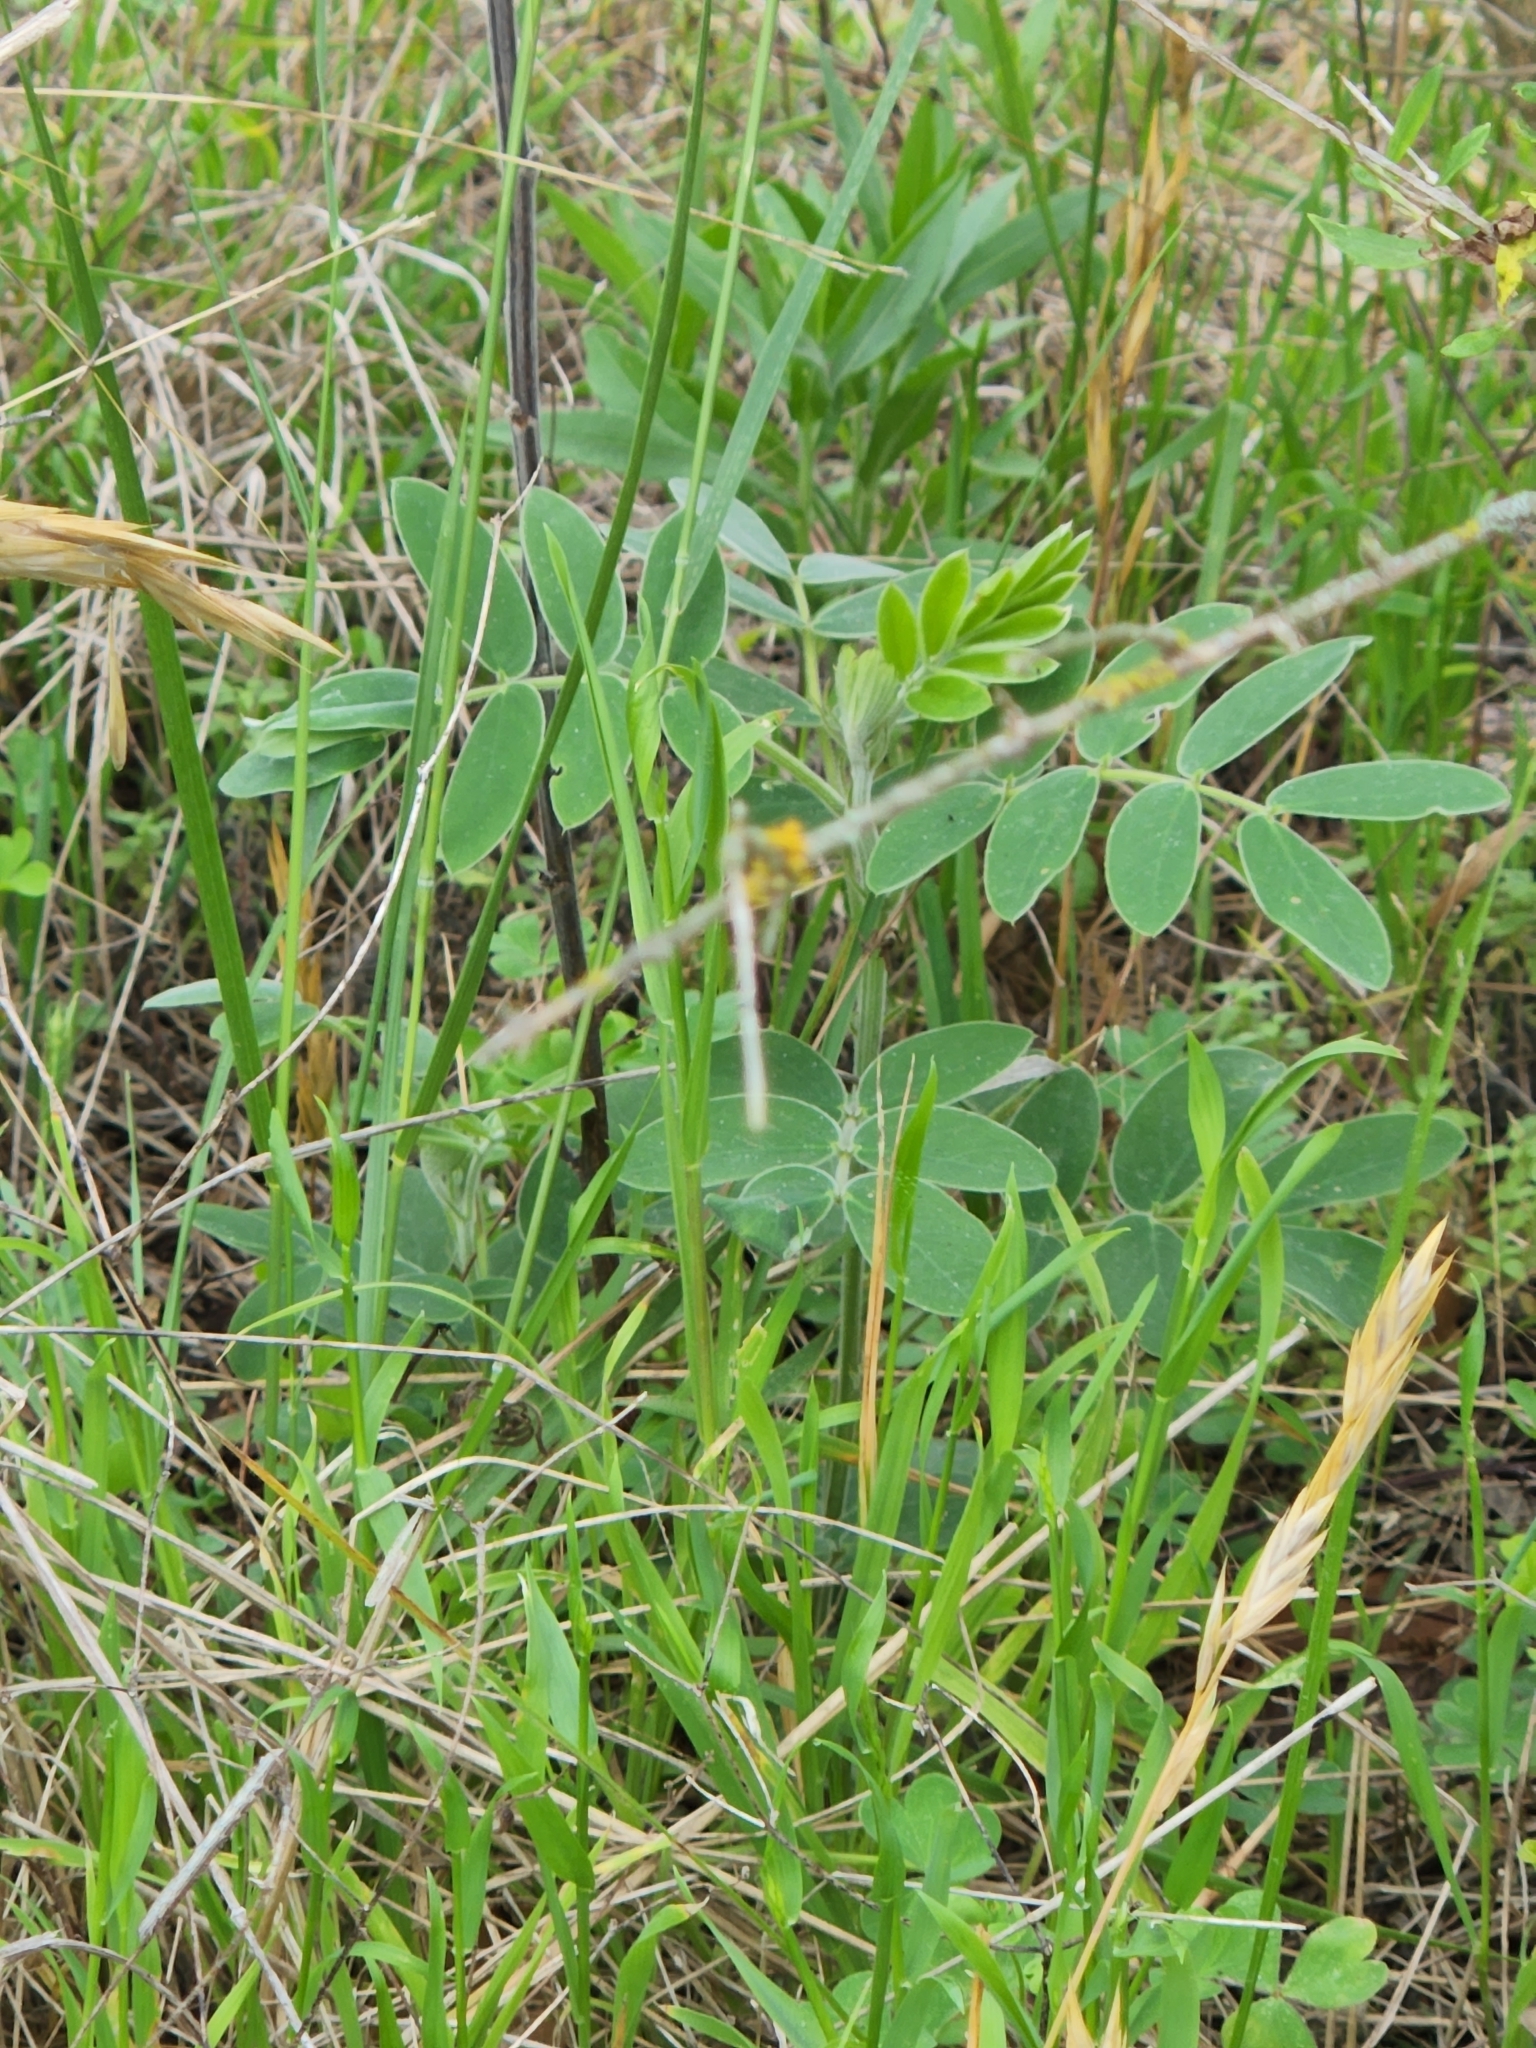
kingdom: Plantae
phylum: Tracheophyta
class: Magnoliopsida
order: Fabales
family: Fabaceae
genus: Senna
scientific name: Senna lindheimeriana
